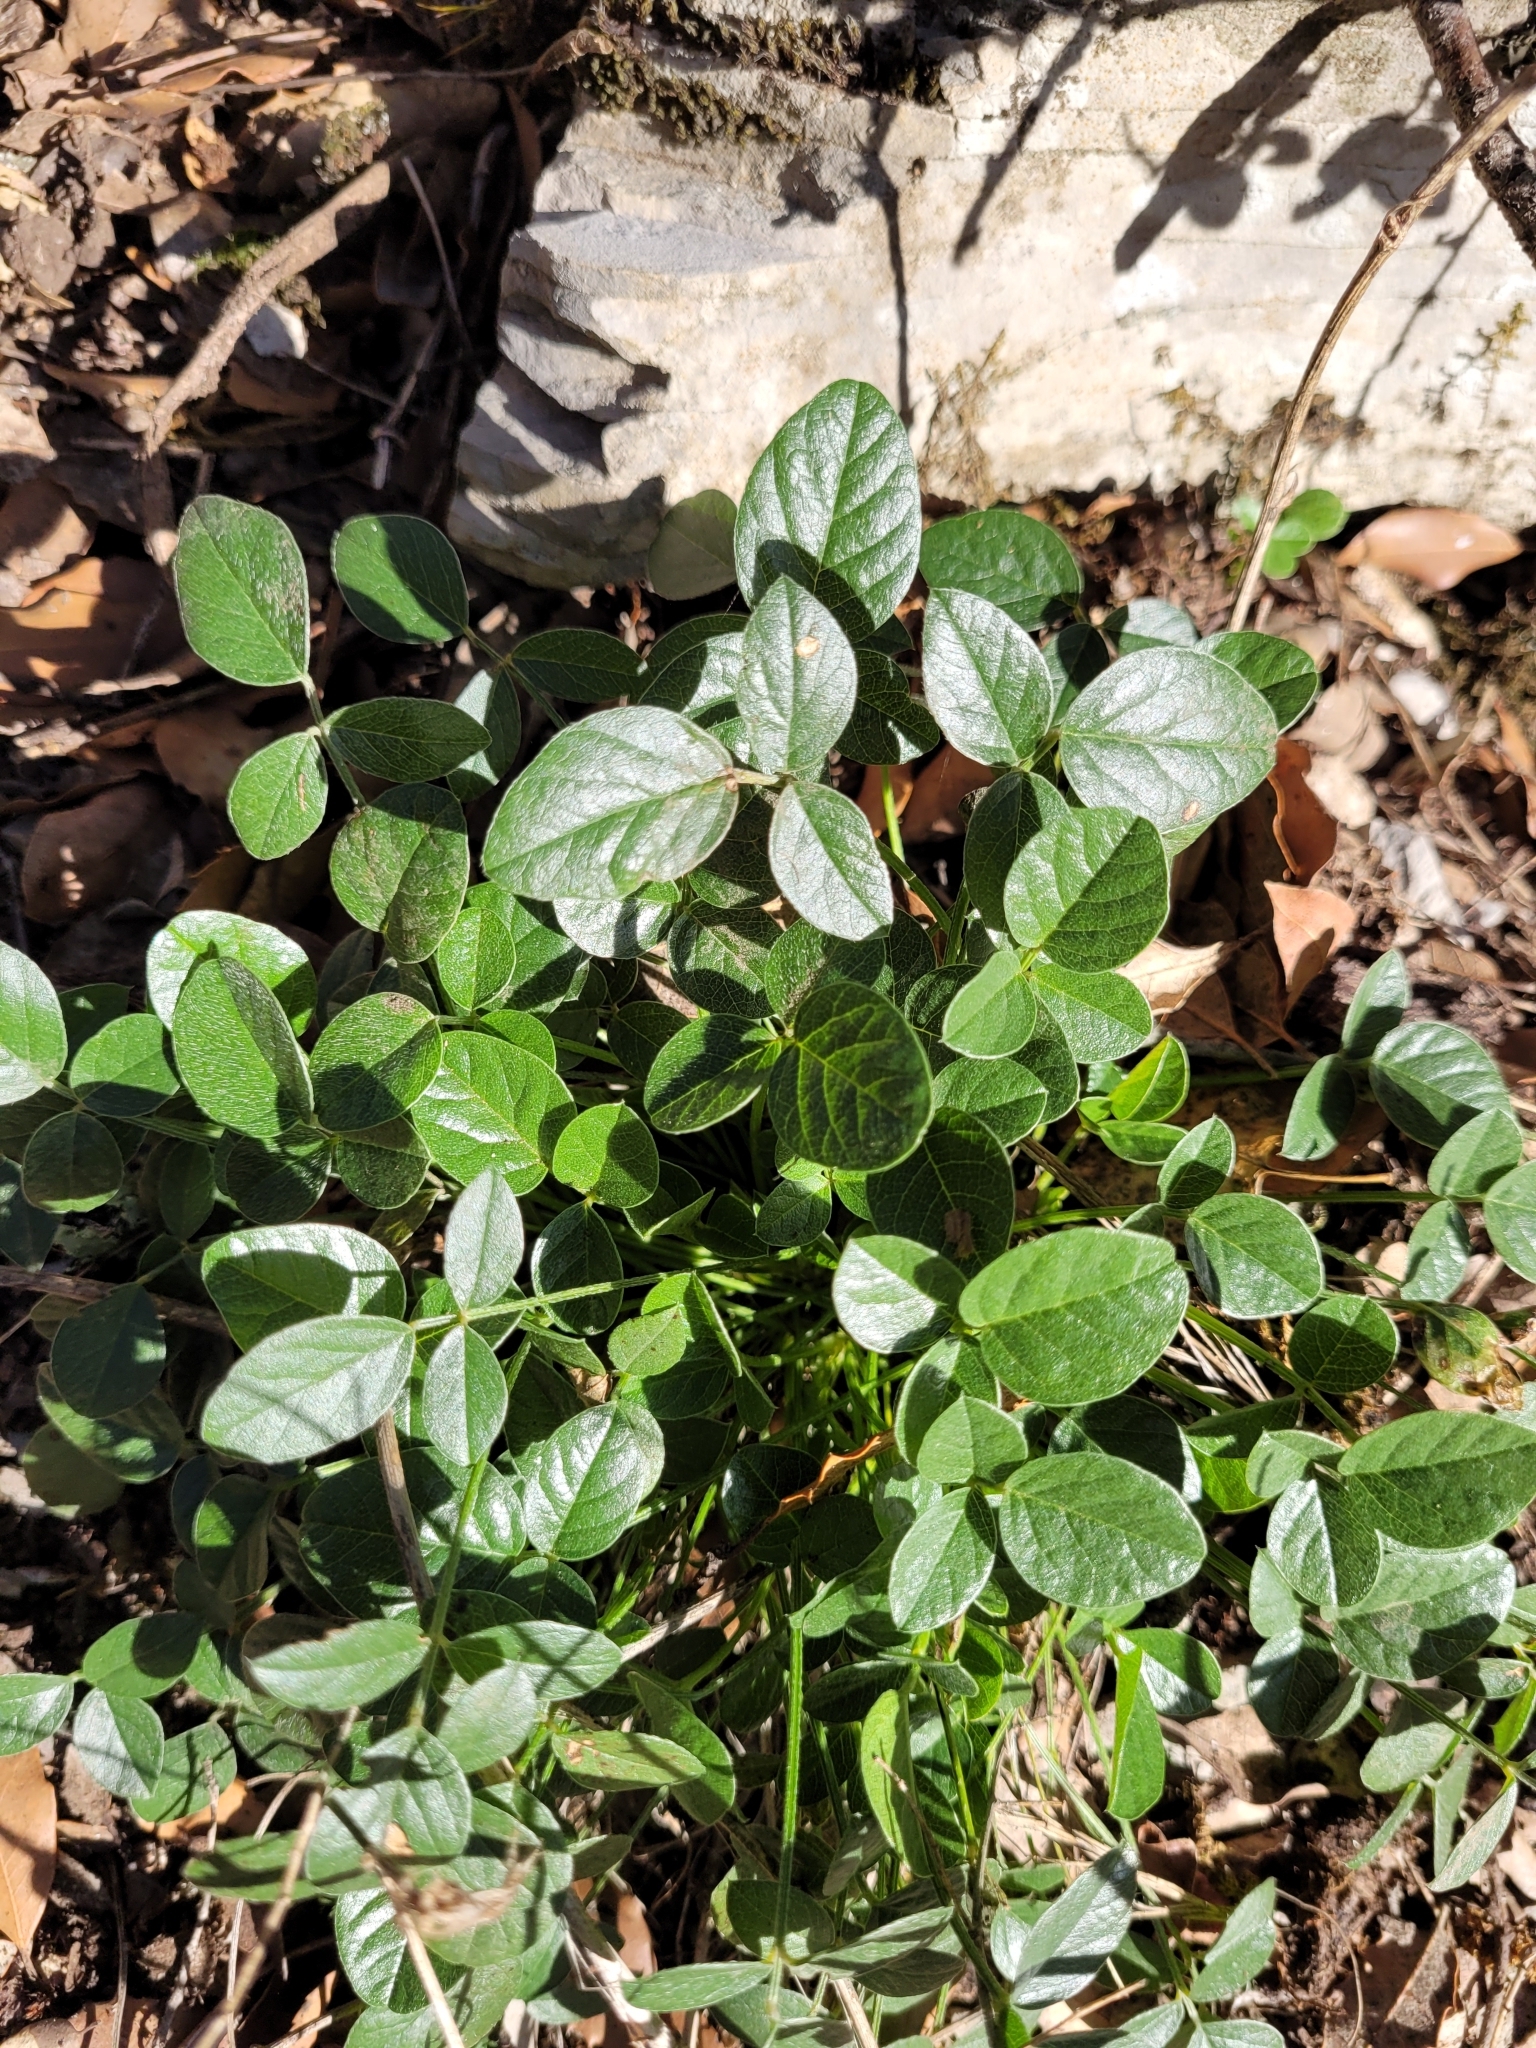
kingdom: Plantae
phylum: Tracheophyta
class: Magnoliopsida
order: Fabales
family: Fabaceae
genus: Bituminaria
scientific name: Bituminaria bituminosa
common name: Arabian pea
